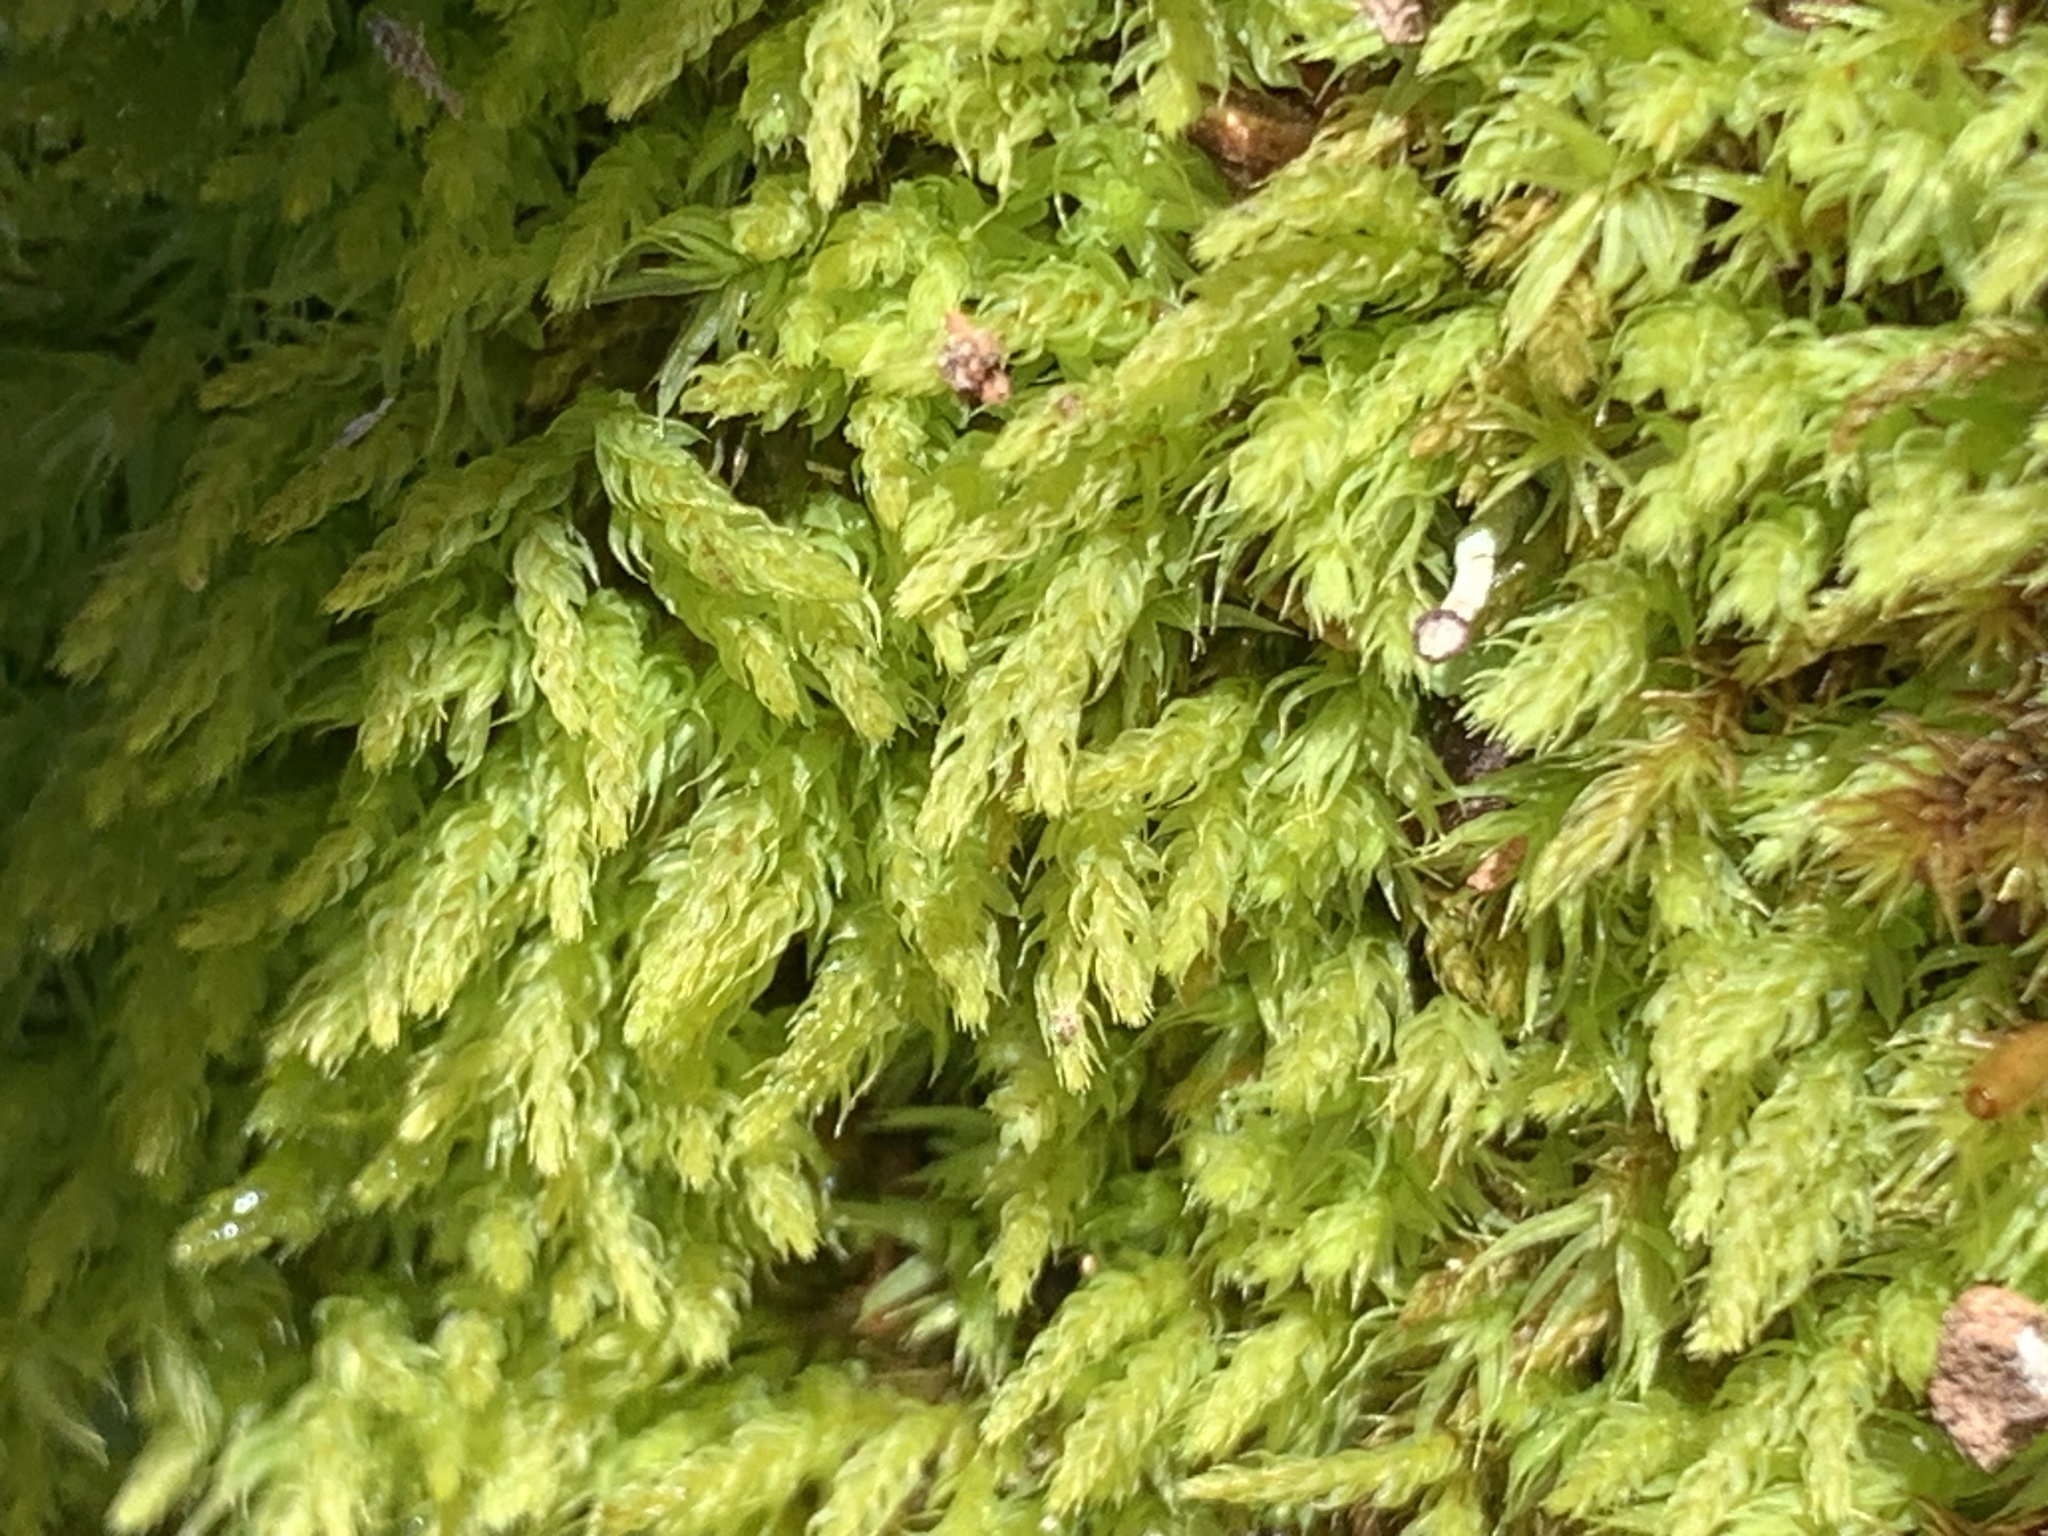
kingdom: Plantae
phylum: Bryophyta
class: Bryopsida
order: Orthodontiales
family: Orthodontiaceae
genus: Leptotheca
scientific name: Leptotheca gaudichaudii
